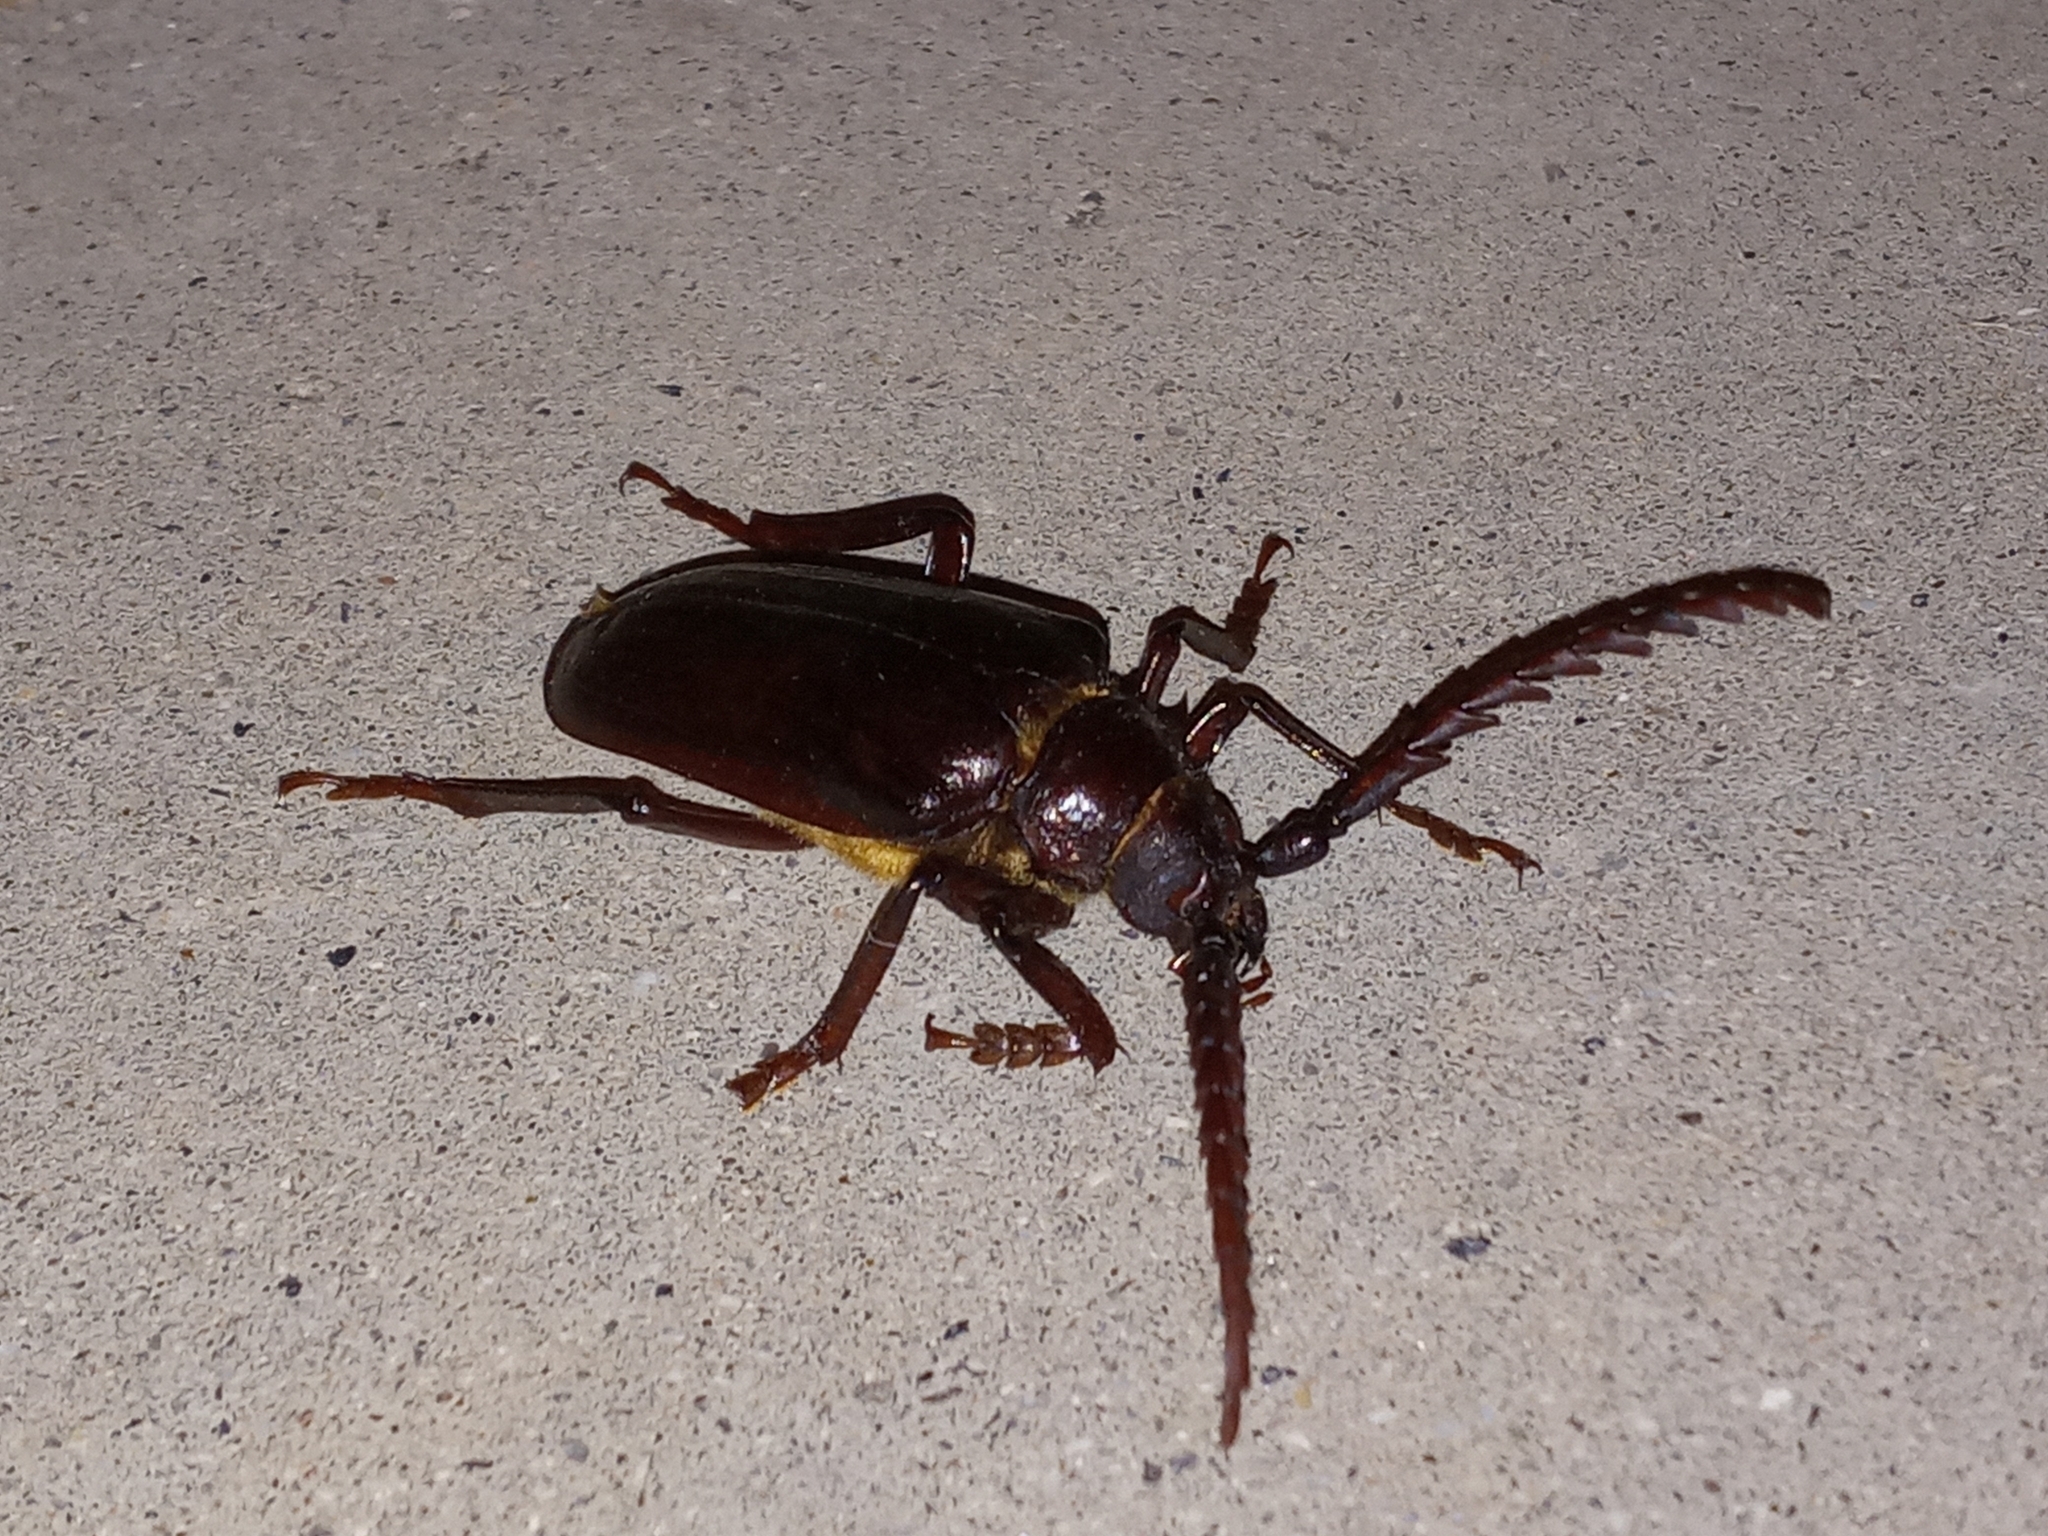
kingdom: Animalia
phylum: Arthropoda
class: Insecta
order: Coleoptera
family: Cerambycidae
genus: Prionus
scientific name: Prionus californicus
